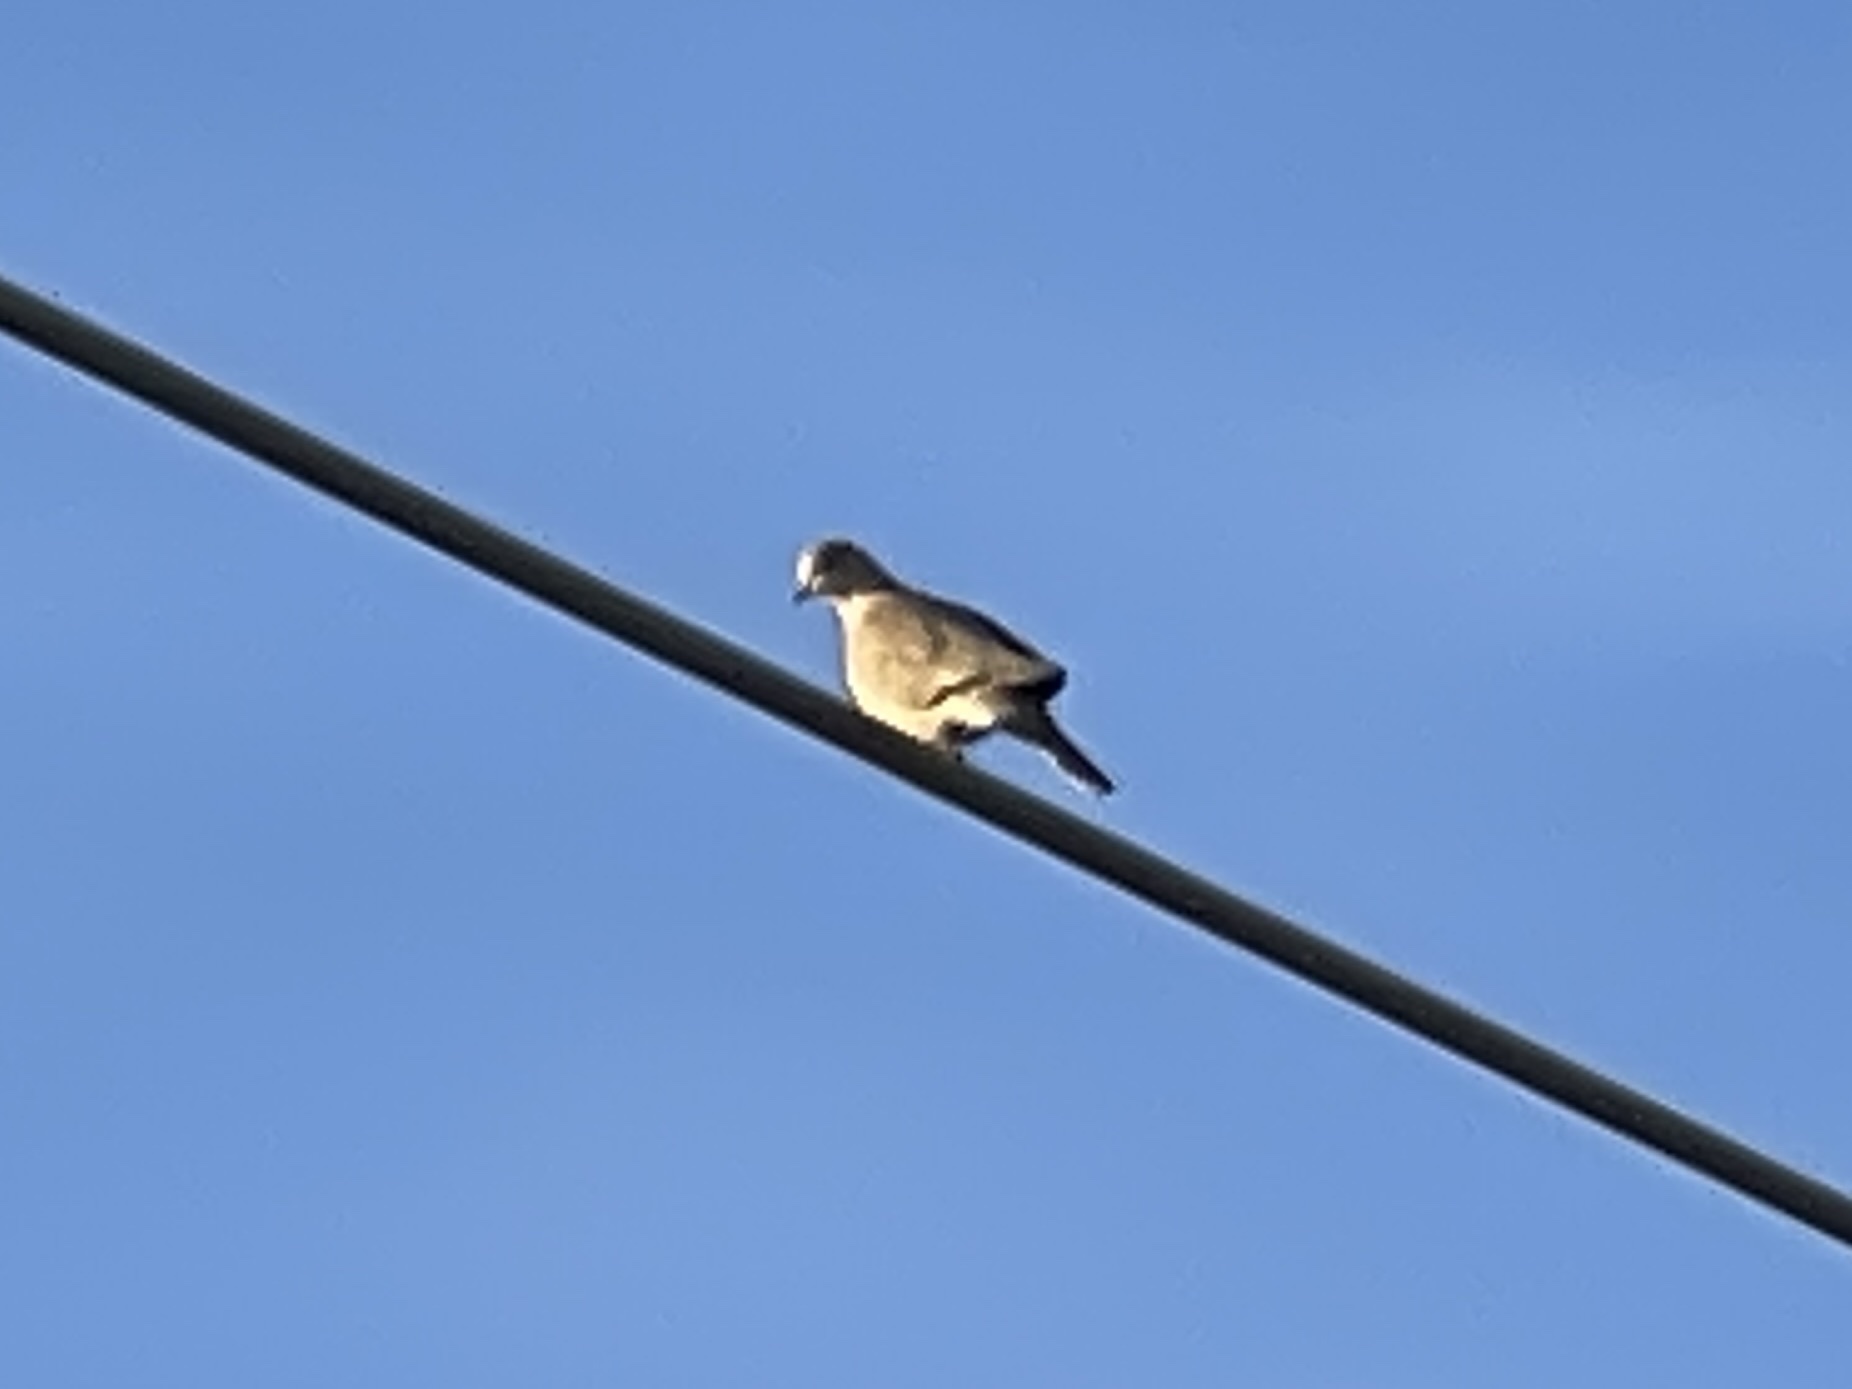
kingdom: Animalia
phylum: Chordata
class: Aves
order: Columbiformes
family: Columbidae
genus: Streptopelia
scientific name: Streptopelia decaocto
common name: Eurasian collared dove
